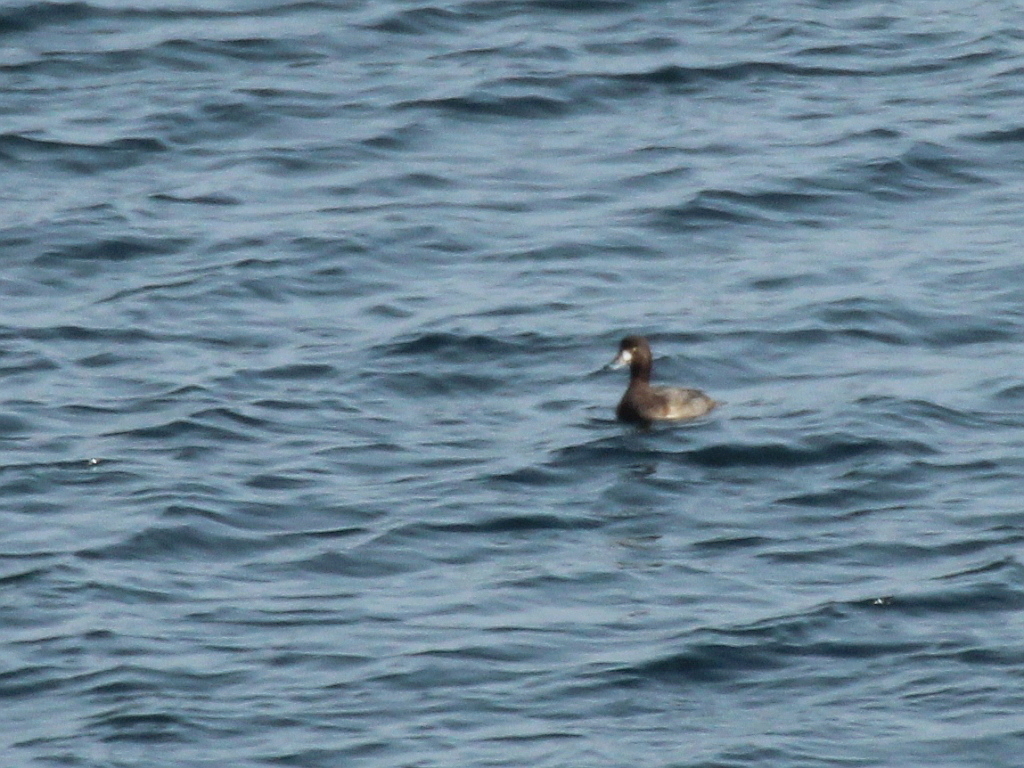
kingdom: Animalia
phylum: Chordata
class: Aves
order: Anseriformes
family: Anatidae
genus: Aythya
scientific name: Aythya marila
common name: Greater scaup
